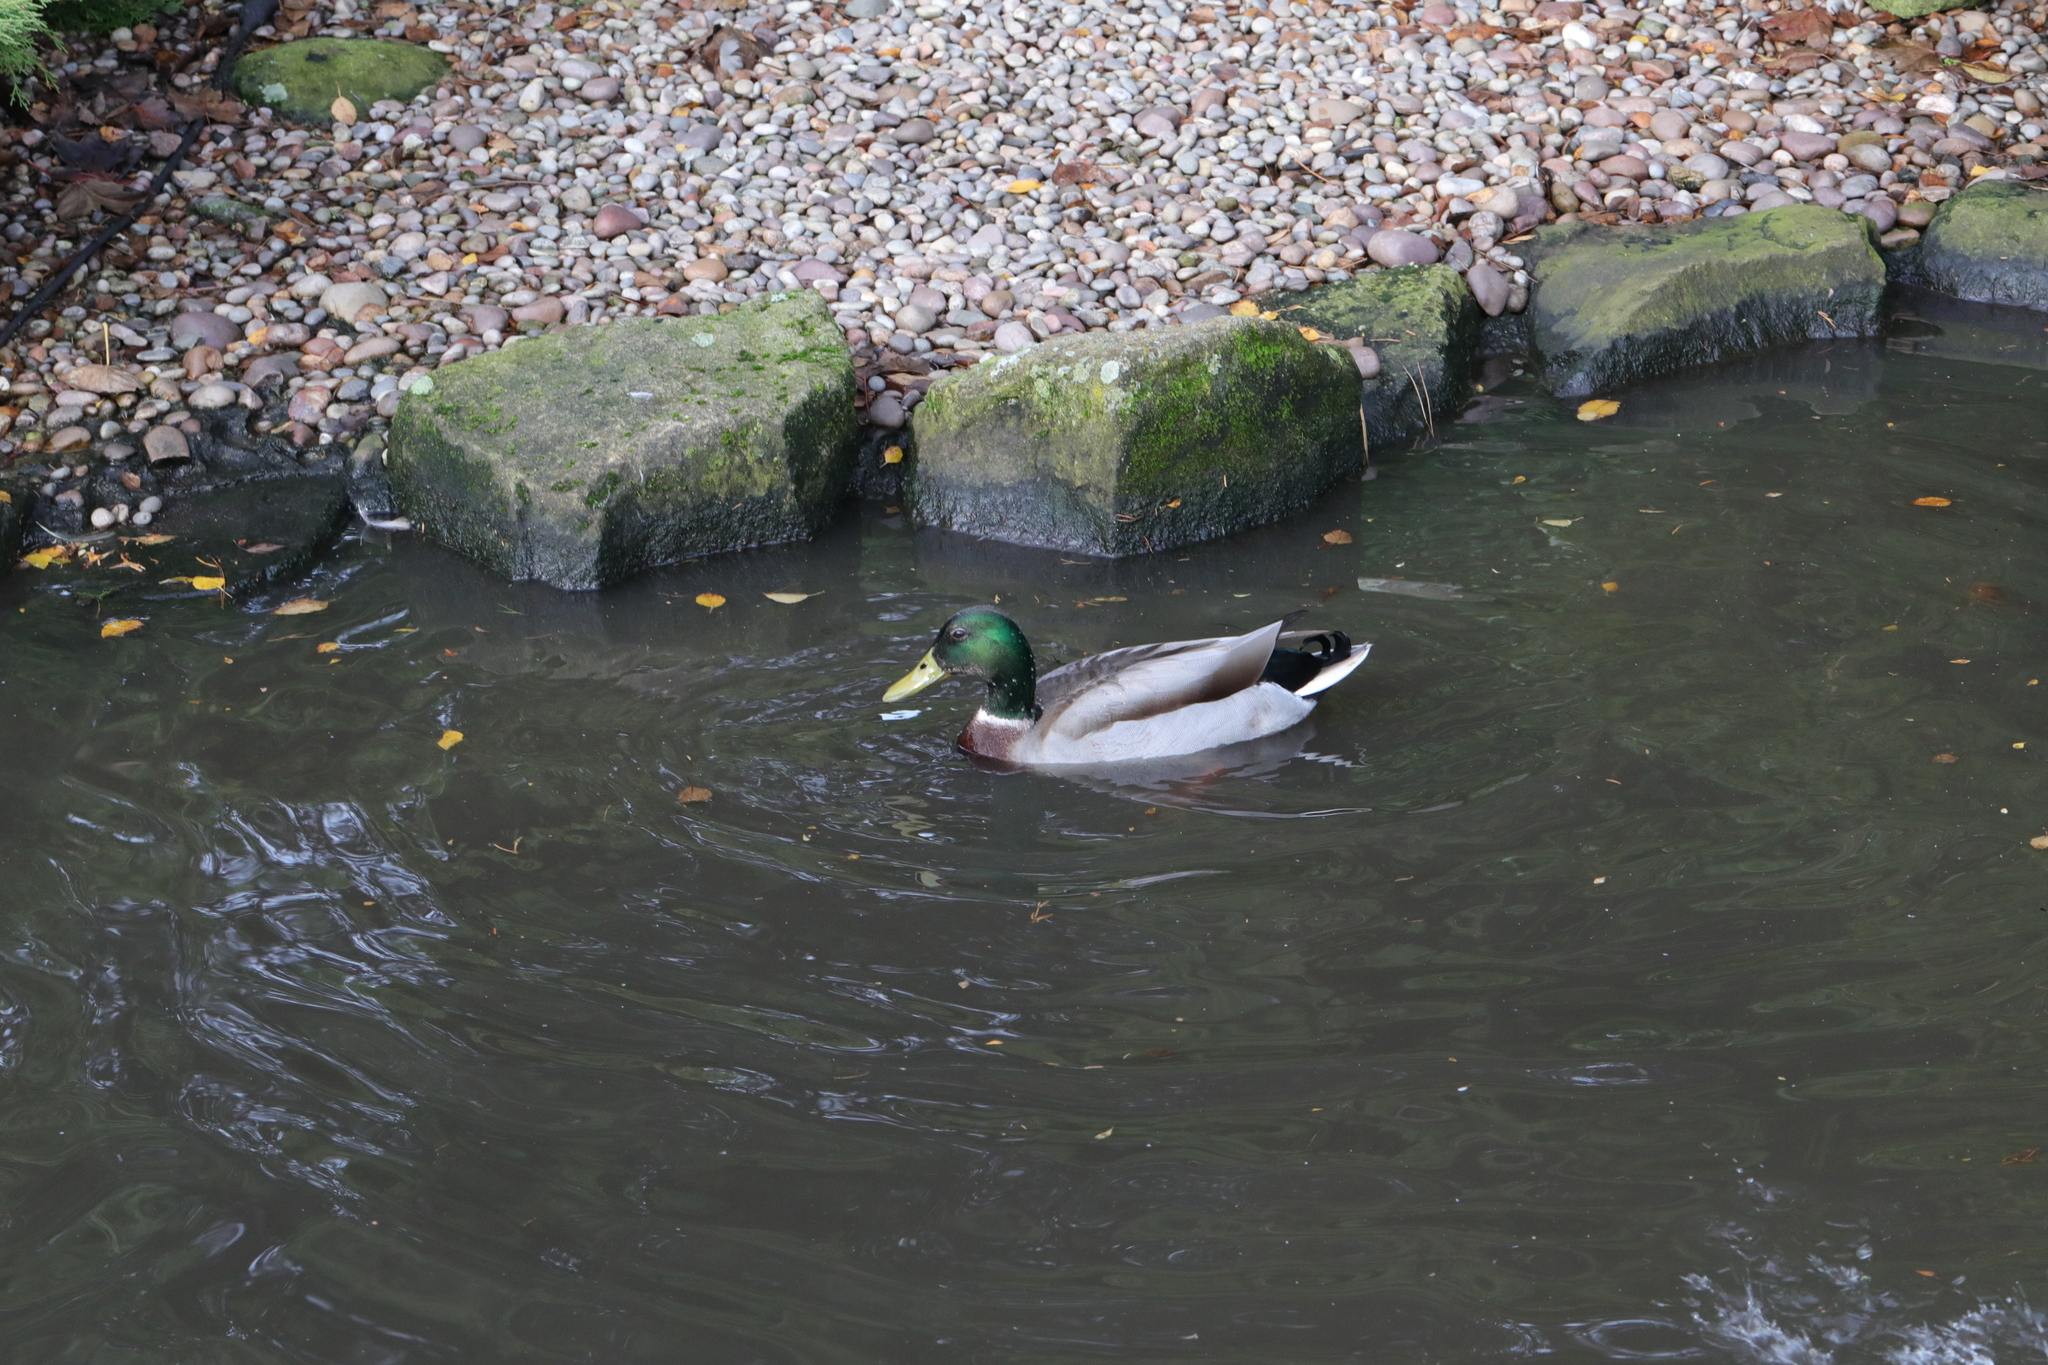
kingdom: Animalia
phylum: Chordata
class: Aves
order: Anseriformes
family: Anatidae
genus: Anas
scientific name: Anas platyrhynchos
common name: Mallard
